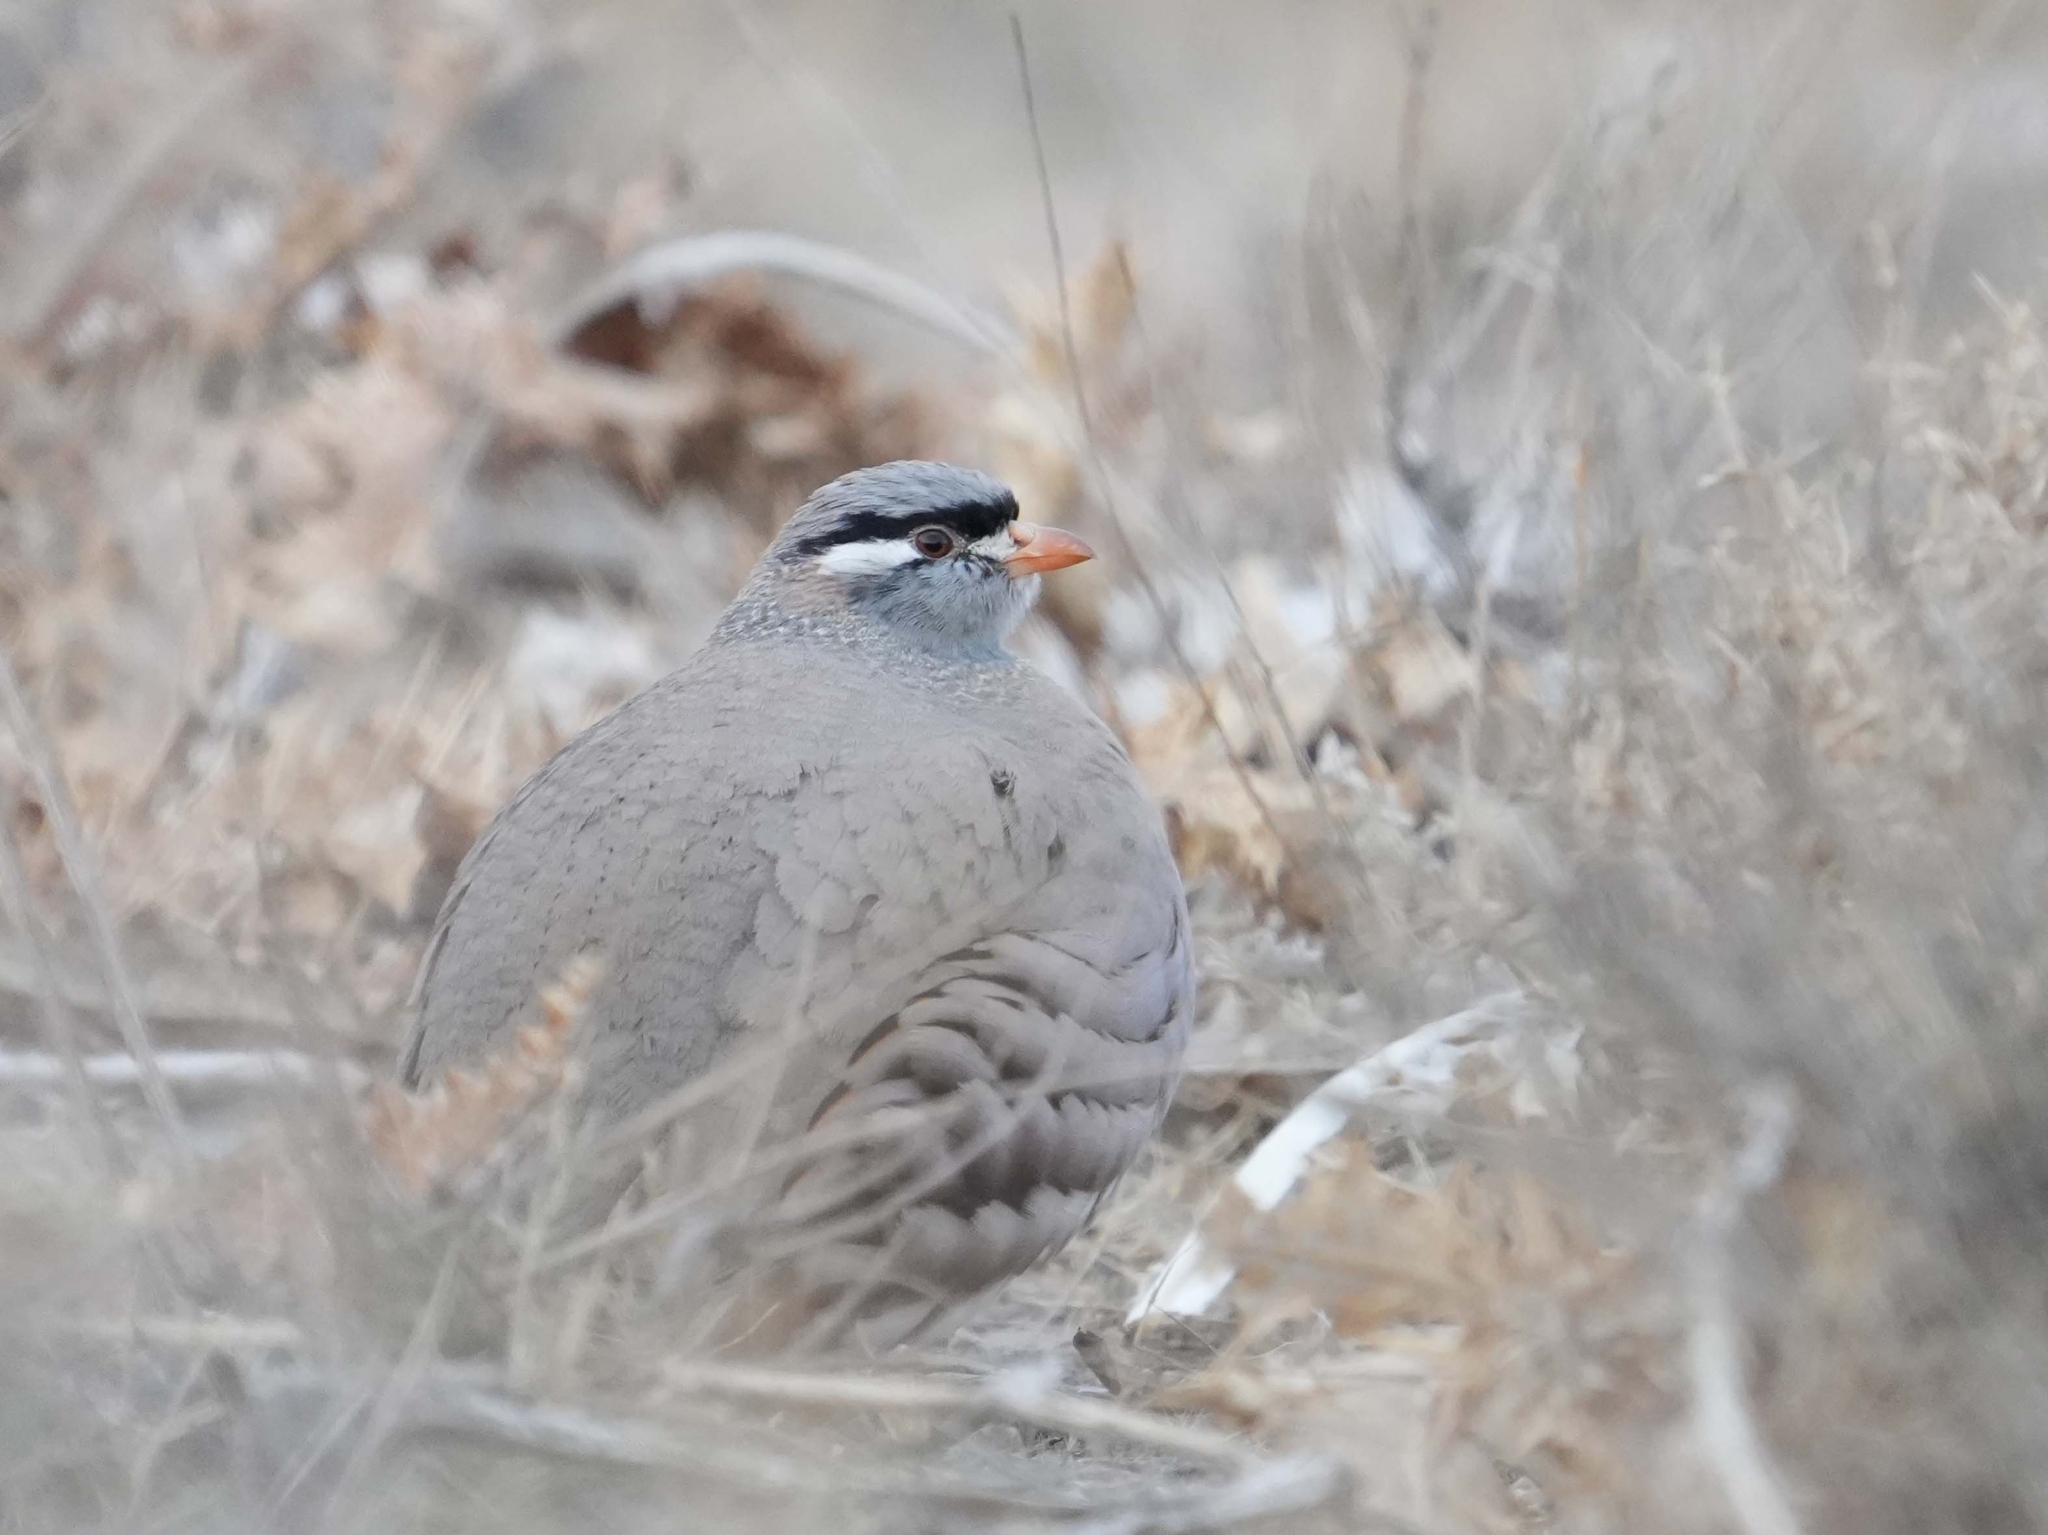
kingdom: Animalia
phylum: Chordata
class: Aves
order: Galliformes
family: Phasianidae
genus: Ammoperdix
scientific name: Ammoperdix griseogularis
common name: See-see partridge
